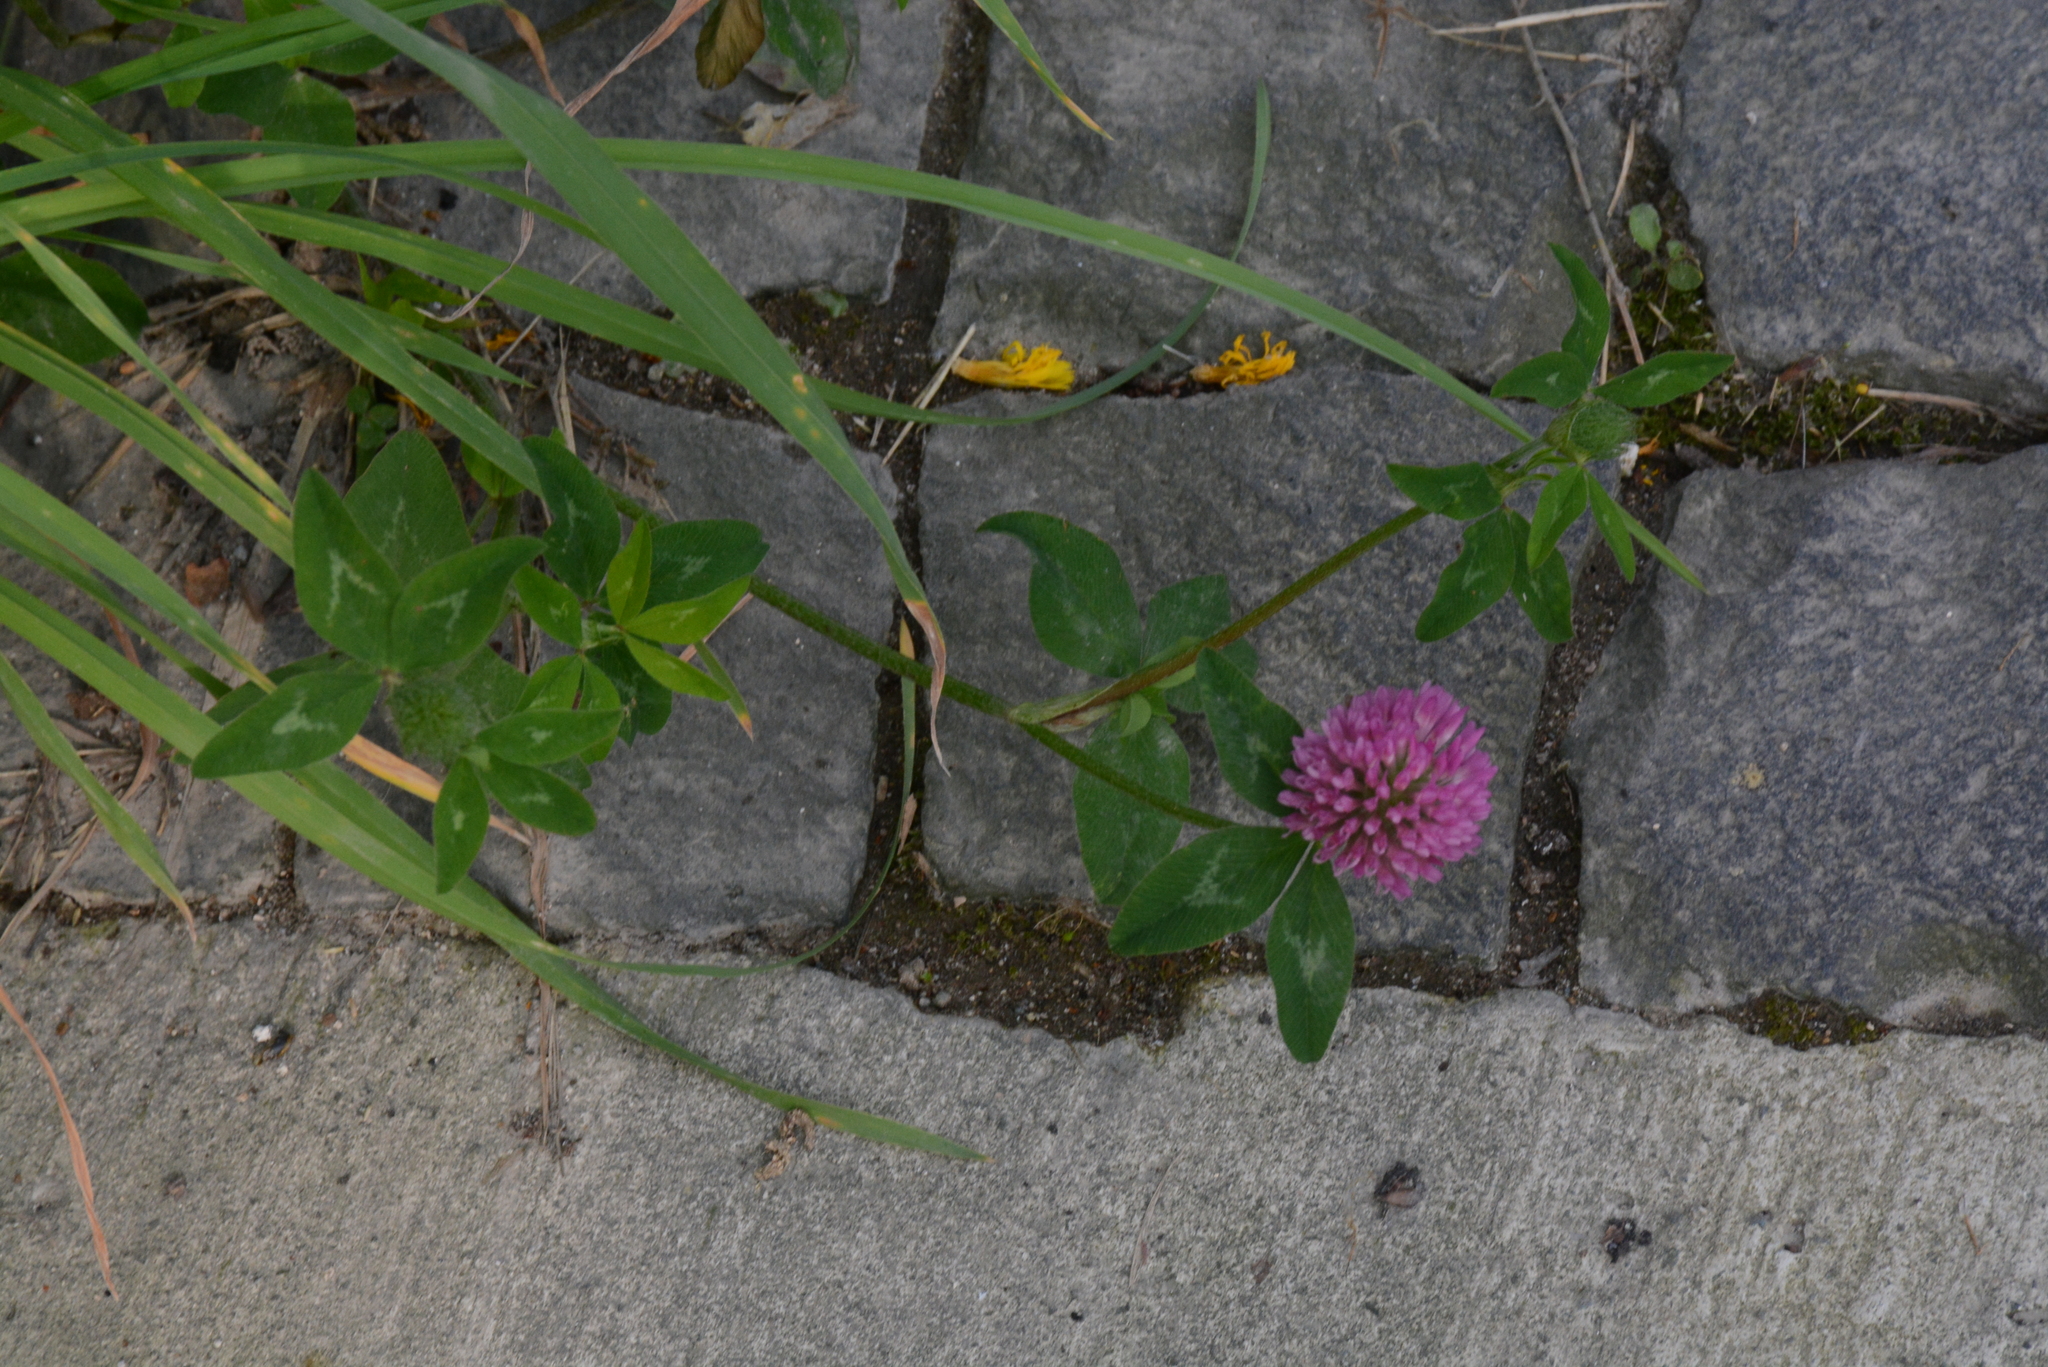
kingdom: Plantae
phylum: Tracheophyta
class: Magnoliopsida
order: Fabales
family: Fabaceae
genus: Trifolium
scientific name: Trifolium pratense
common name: Red clover
